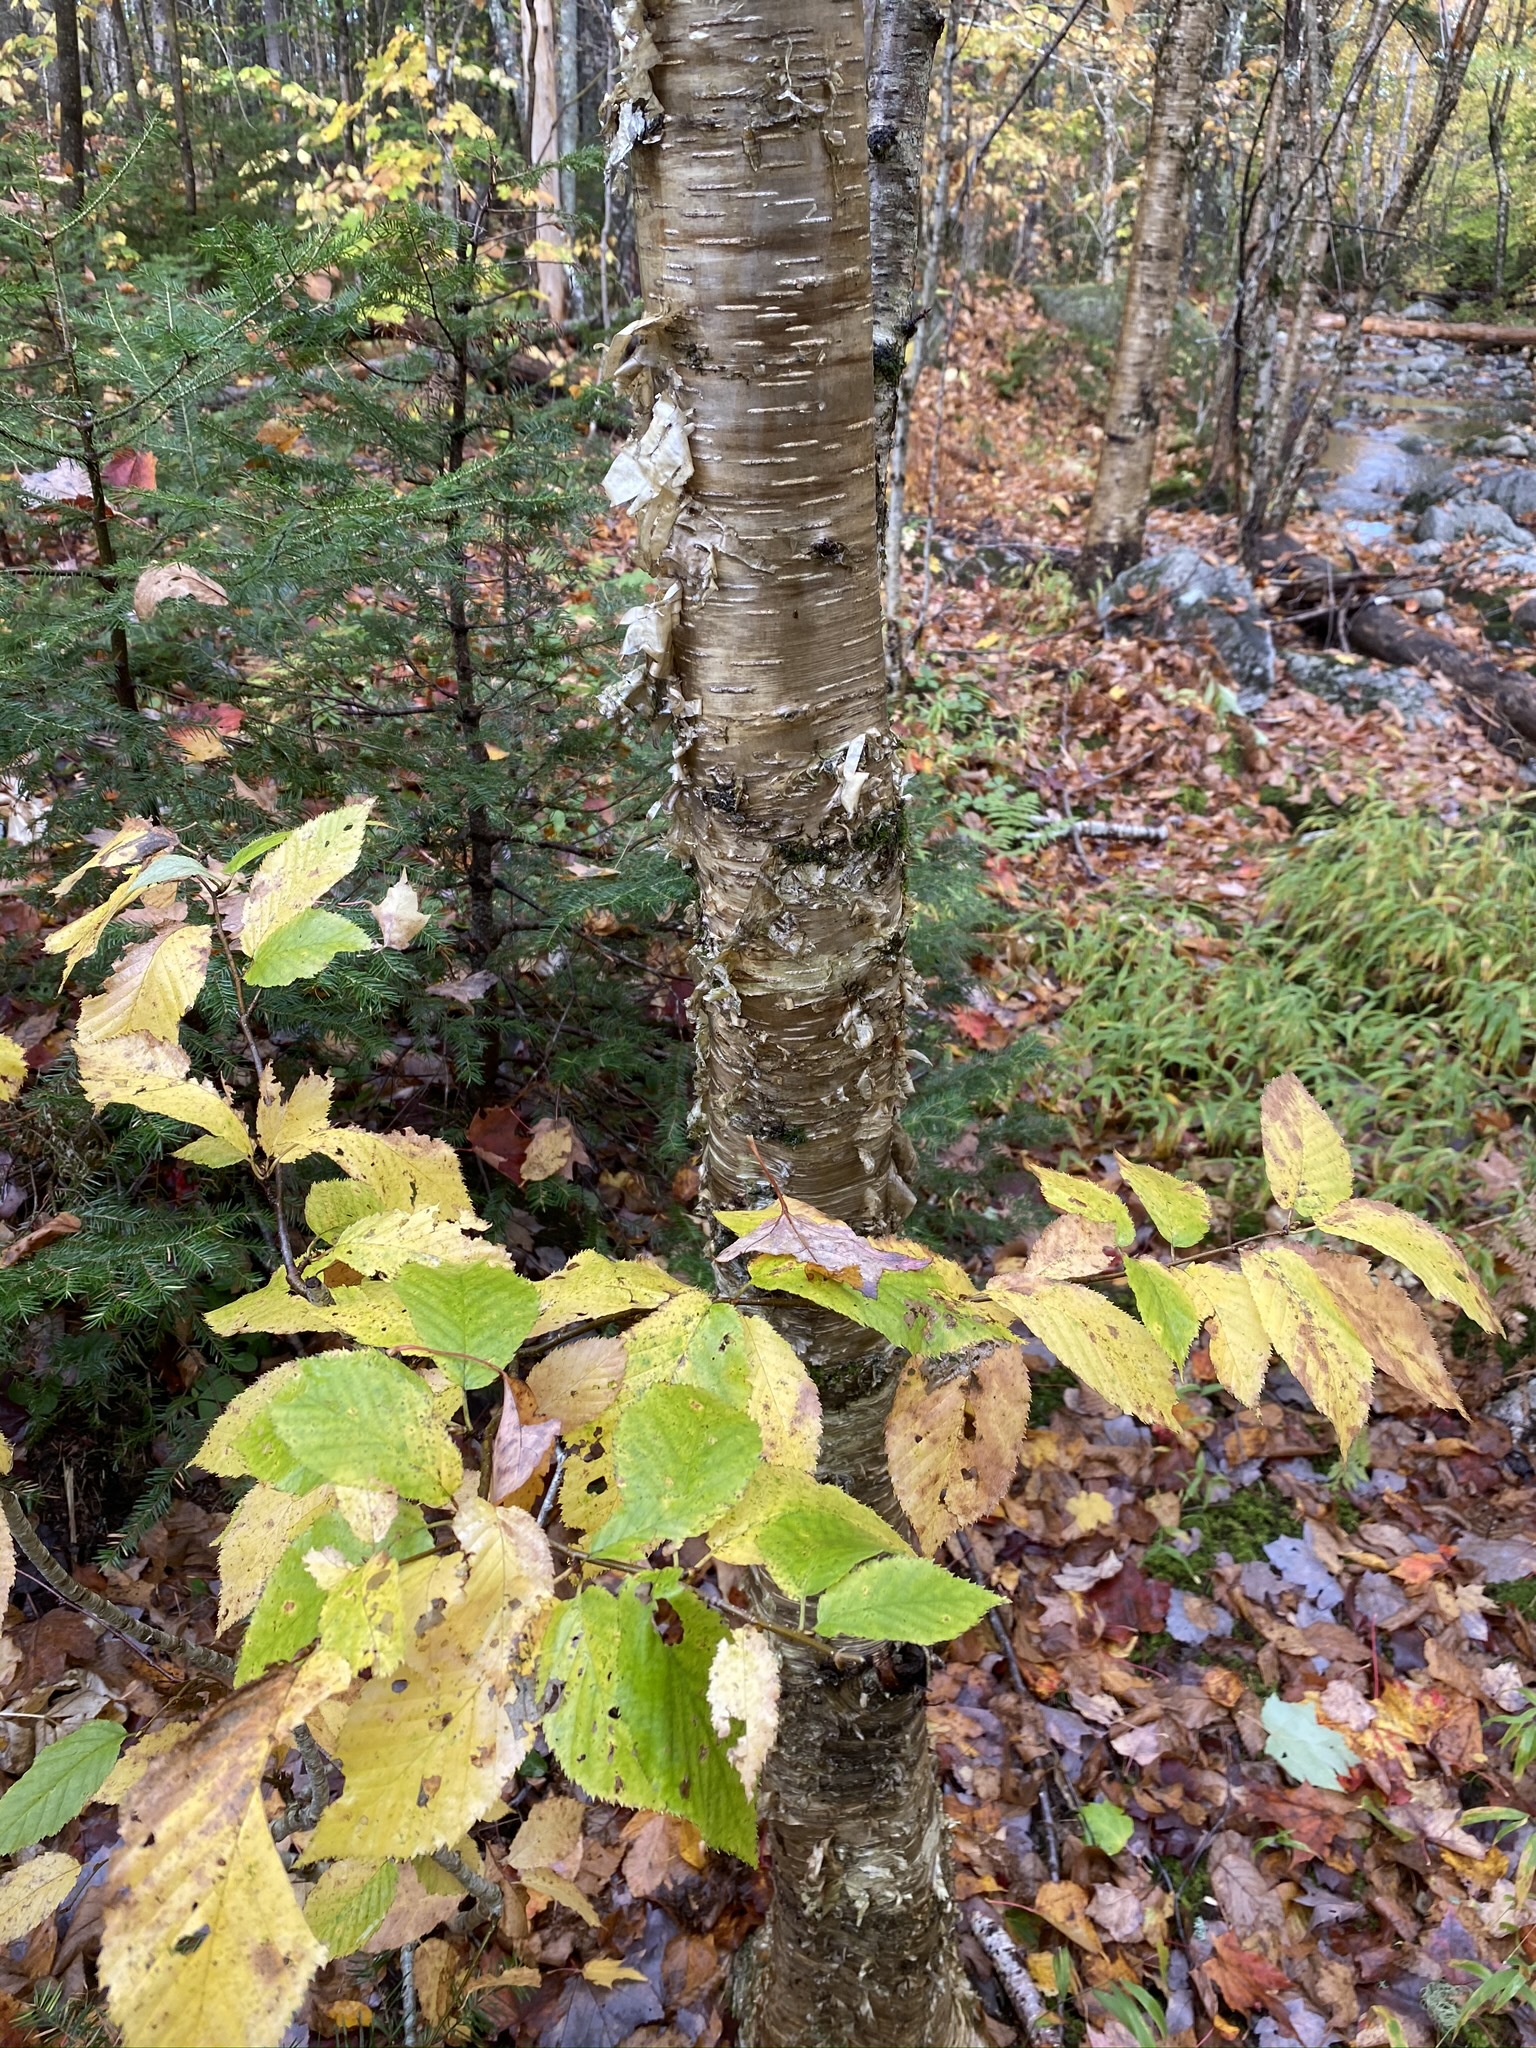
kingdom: Plantae
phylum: Tracheophyta
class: Magnoliopsida
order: Fagales
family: Betulaceae
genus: Betula
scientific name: Betula alleghaniensis
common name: Yellow birch
